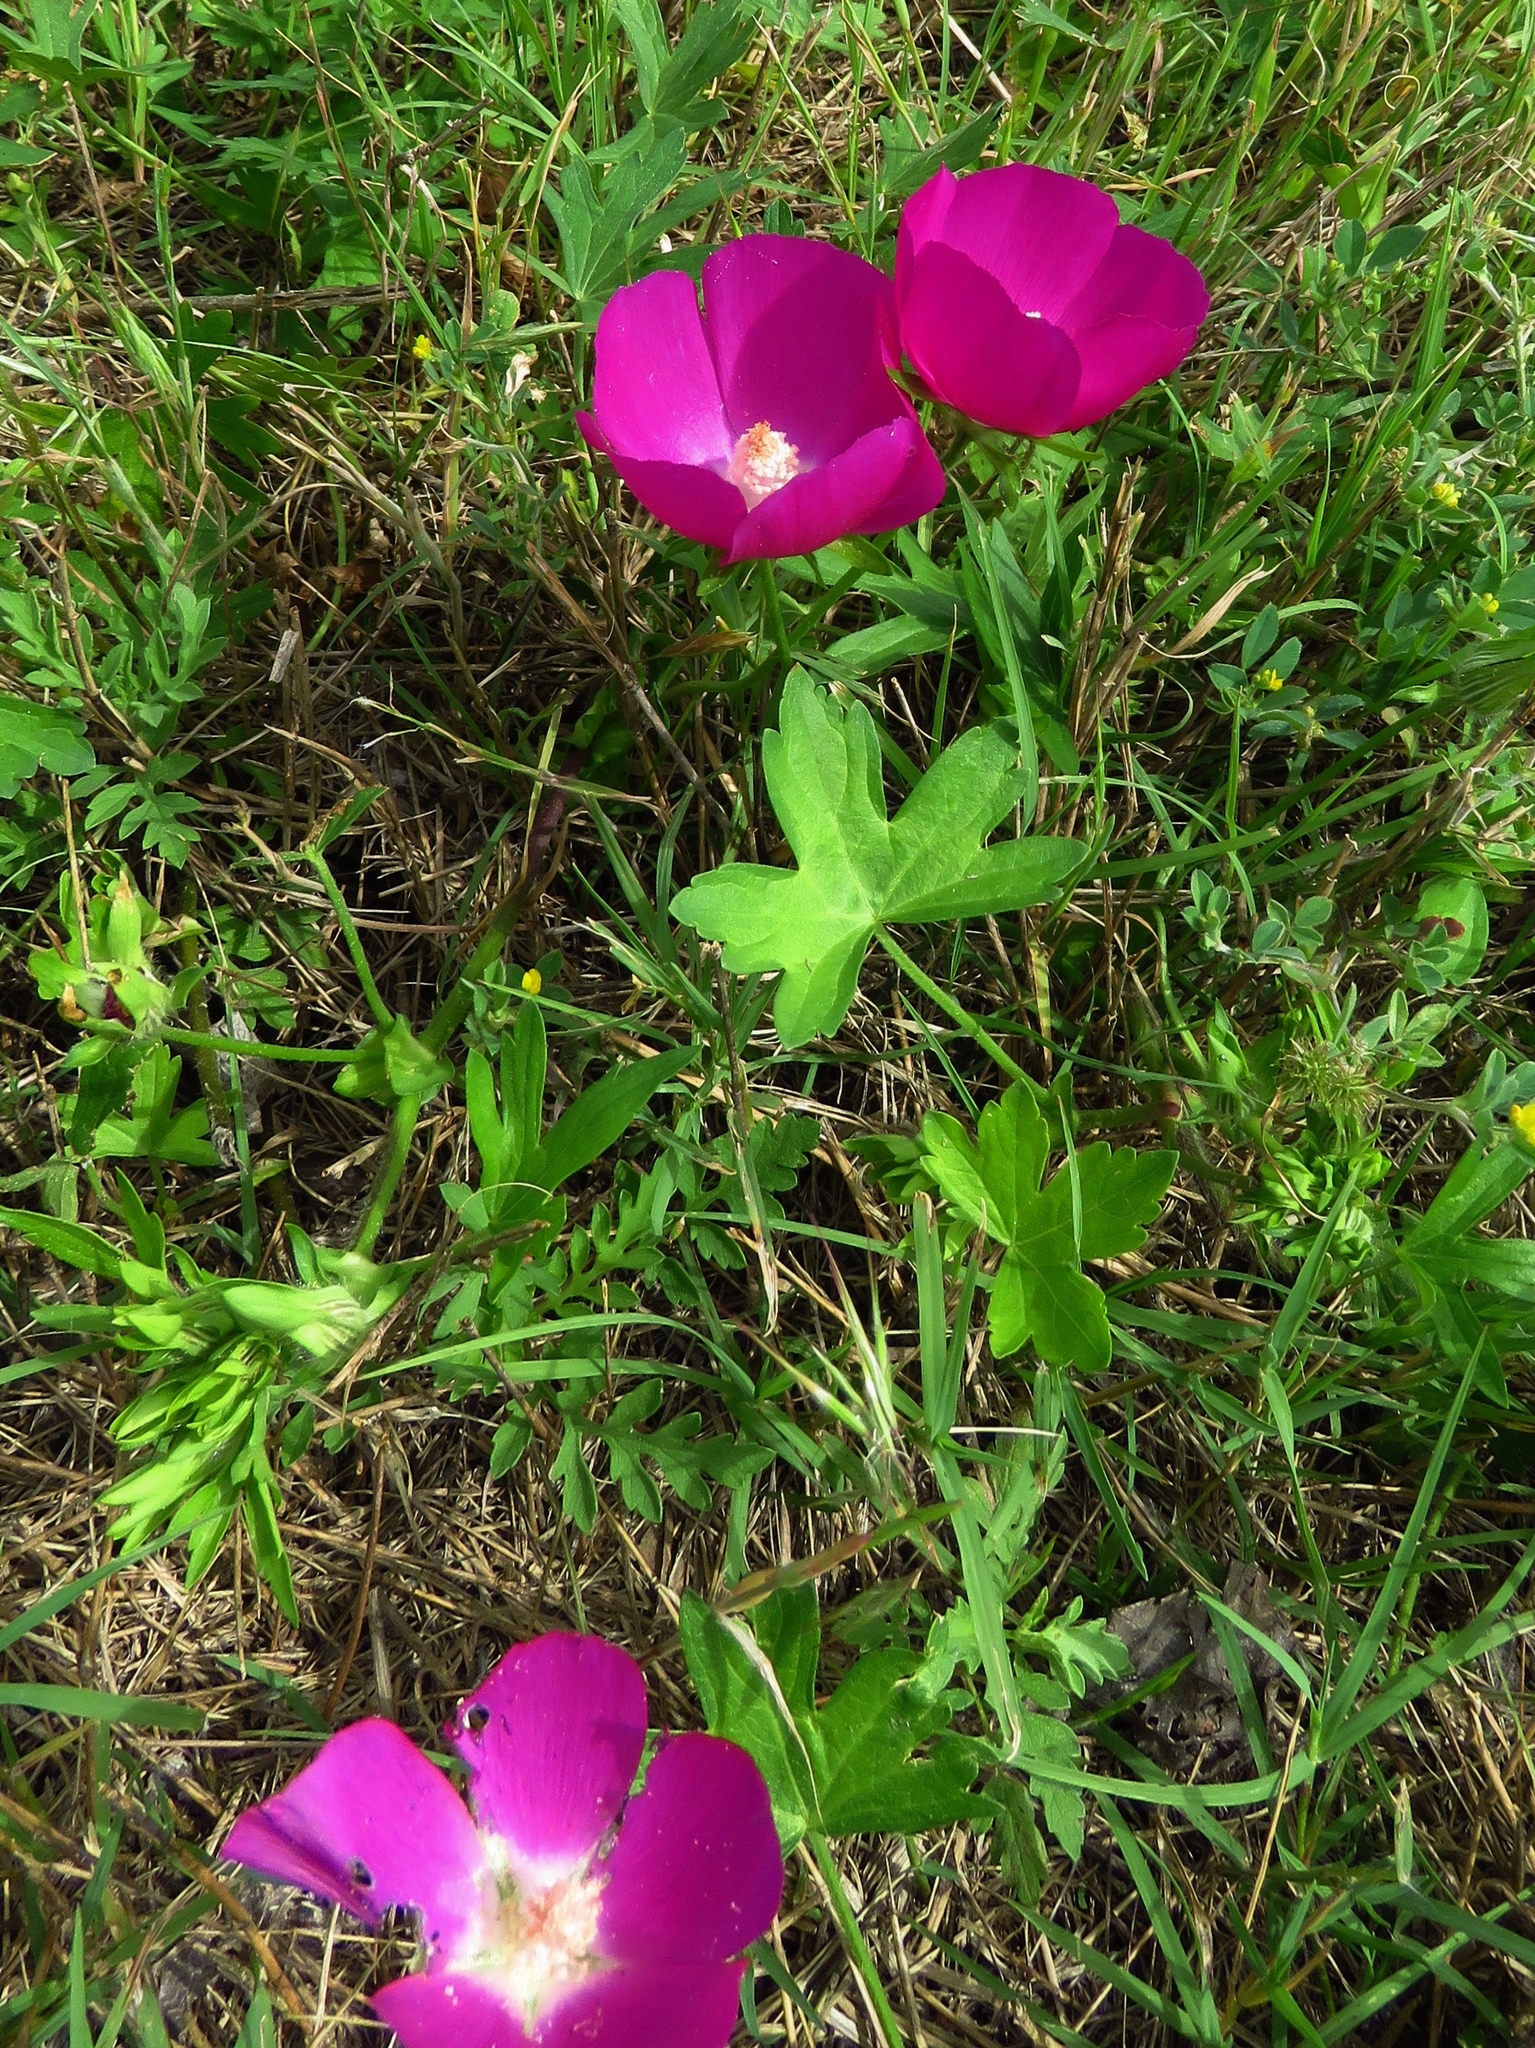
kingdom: Plantae
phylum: Tracheophyta
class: Magnoliopsida
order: Malvales
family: Malvaceae
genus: Callirhoe
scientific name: Callirhoe involucrata
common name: Purple poppy-mallow
